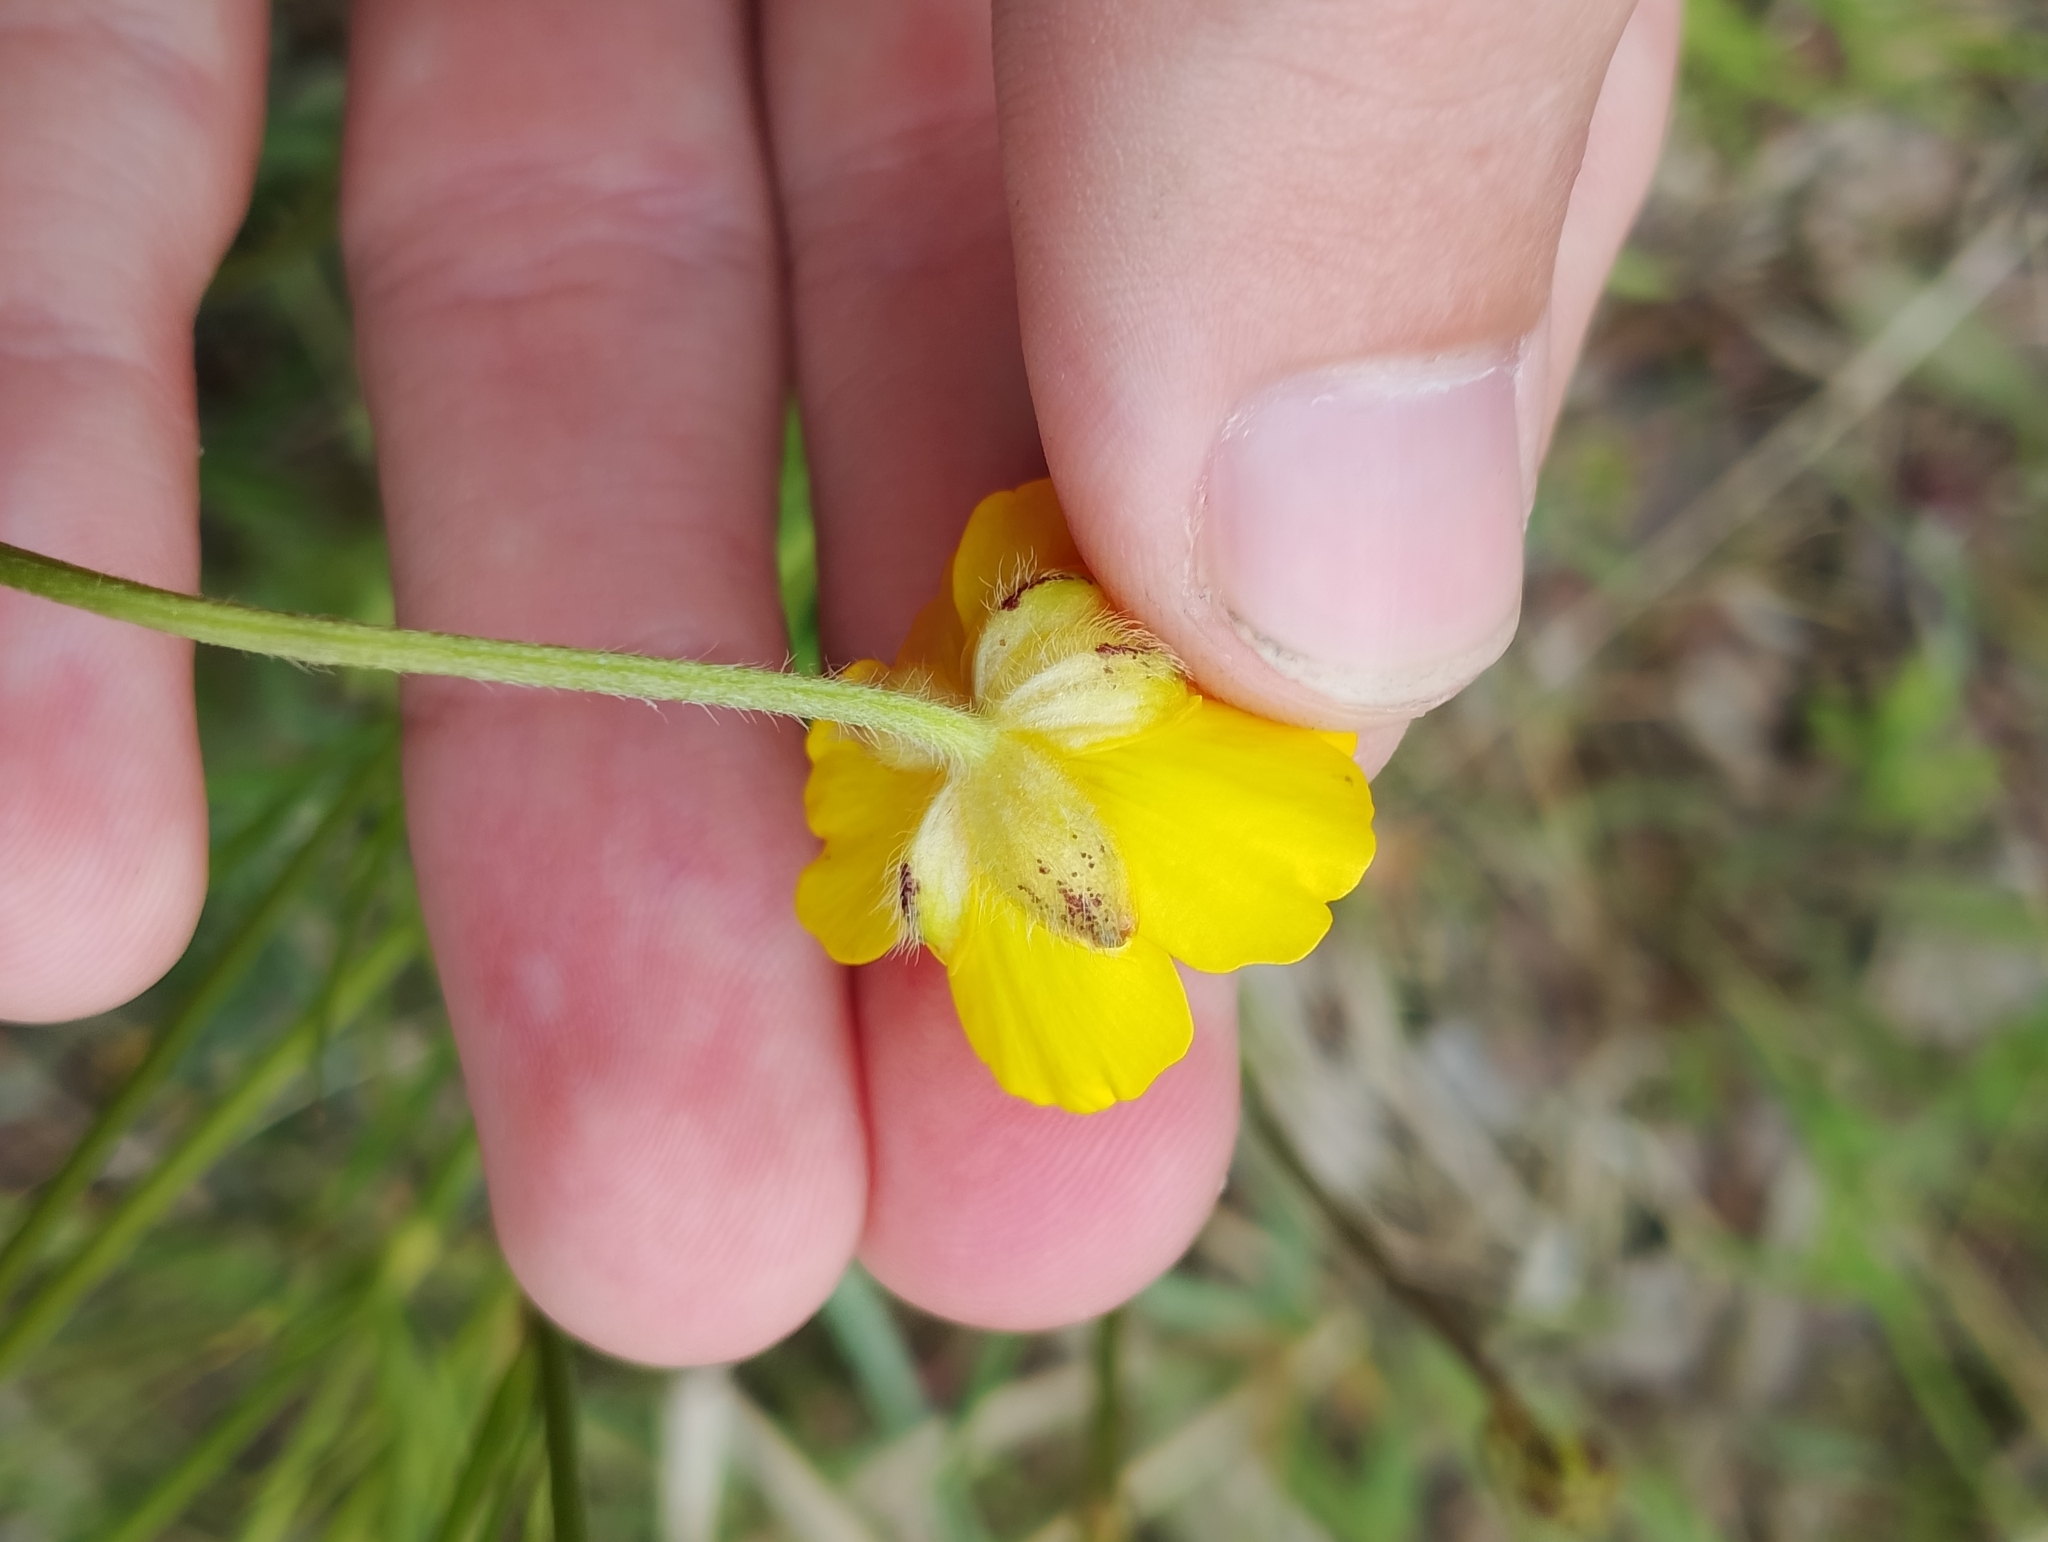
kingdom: Plantae
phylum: Tracheophyta
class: Magnoliopsida
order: Ranunculales
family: Ranunculaceae
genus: Ranunculus
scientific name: Ranunculus polyanthemos
